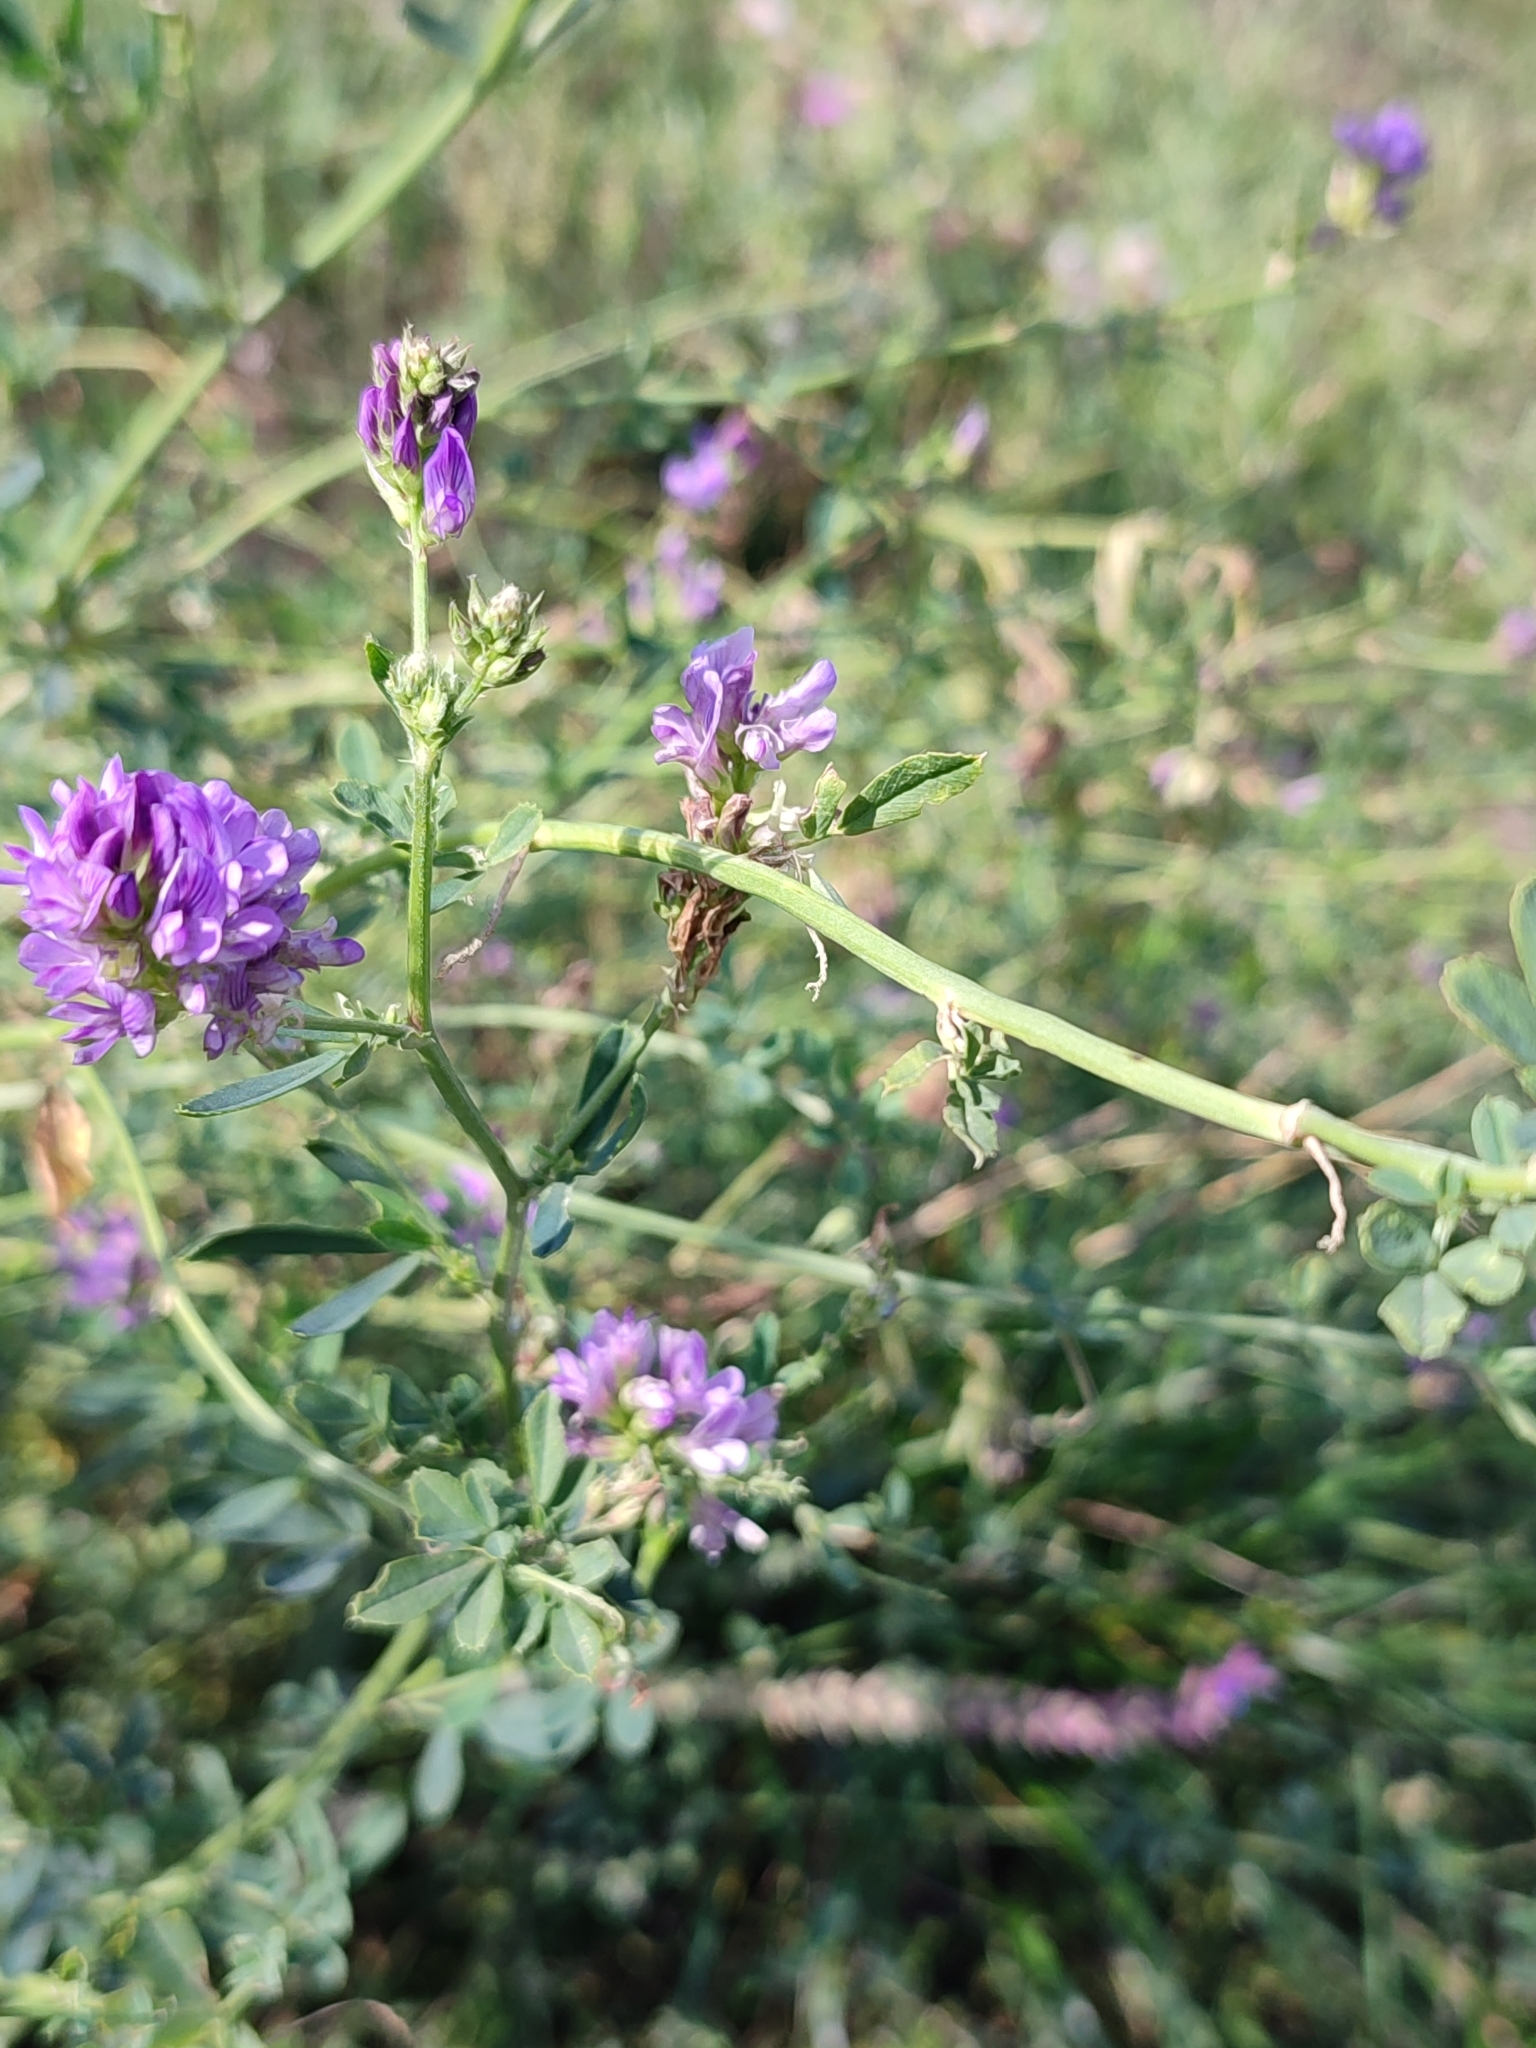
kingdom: Plantae
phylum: Tracheophyta
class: Magnoliopsida
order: Fabales
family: Fabaceae
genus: Medicago
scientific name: Medicago sativa
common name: Alfalfa
